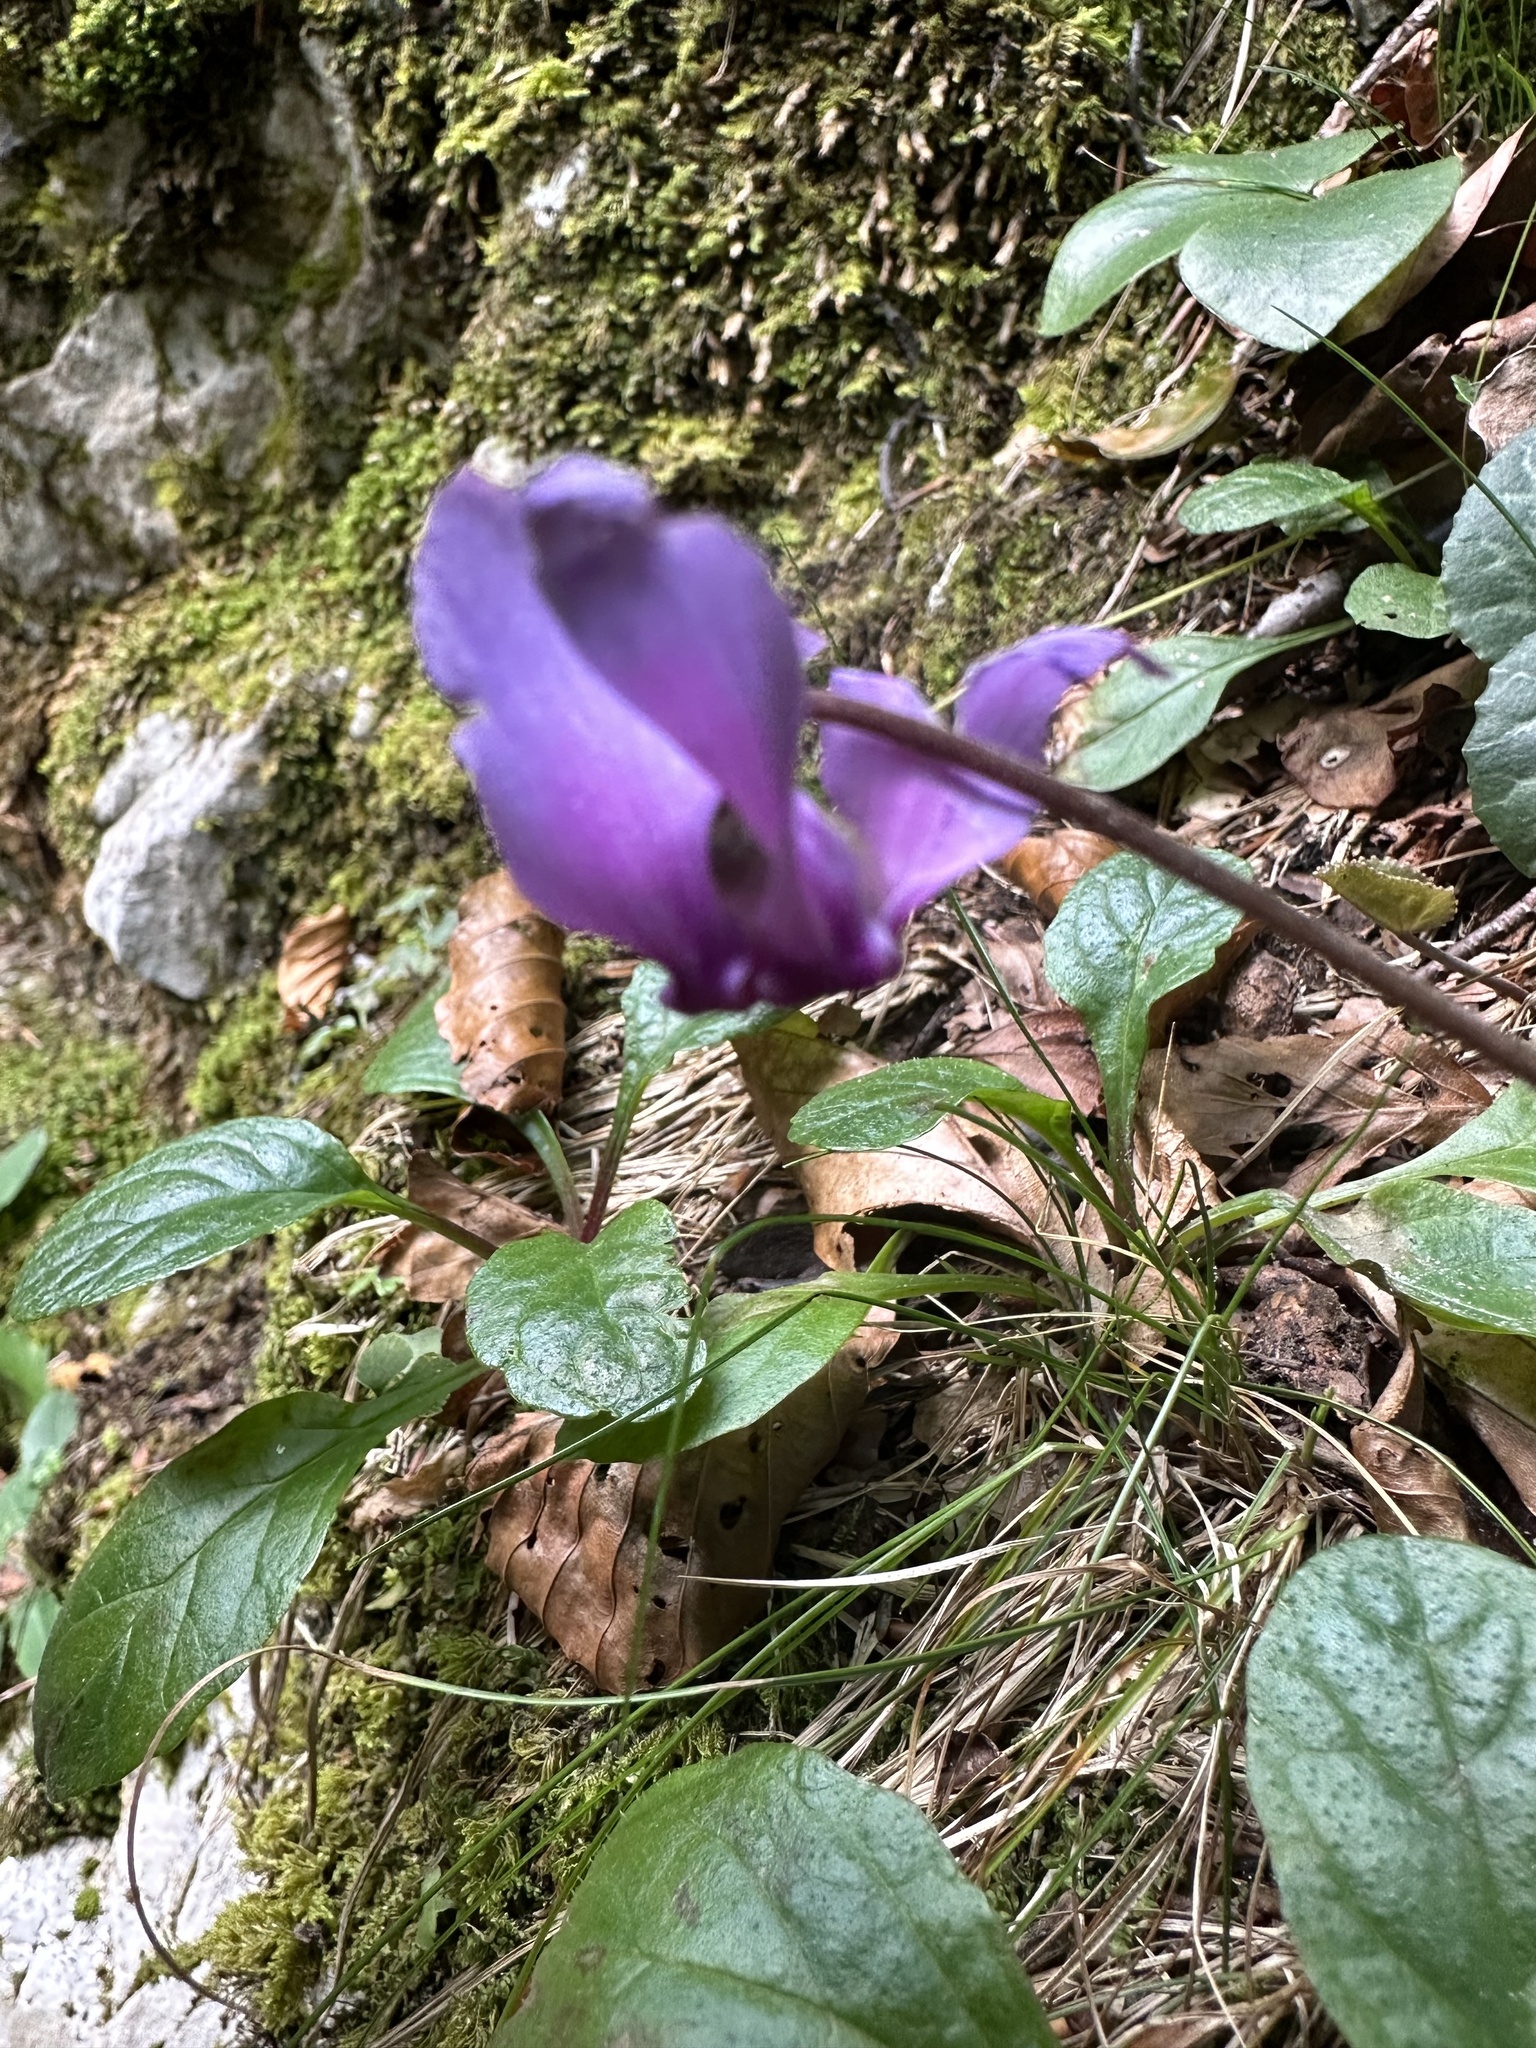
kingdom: Plantae
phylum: Tracheophyta
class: Magnoliopsida
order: Ericales
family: Primulaceae
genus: Cyclamen
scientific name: Cyclamen purpurascens
